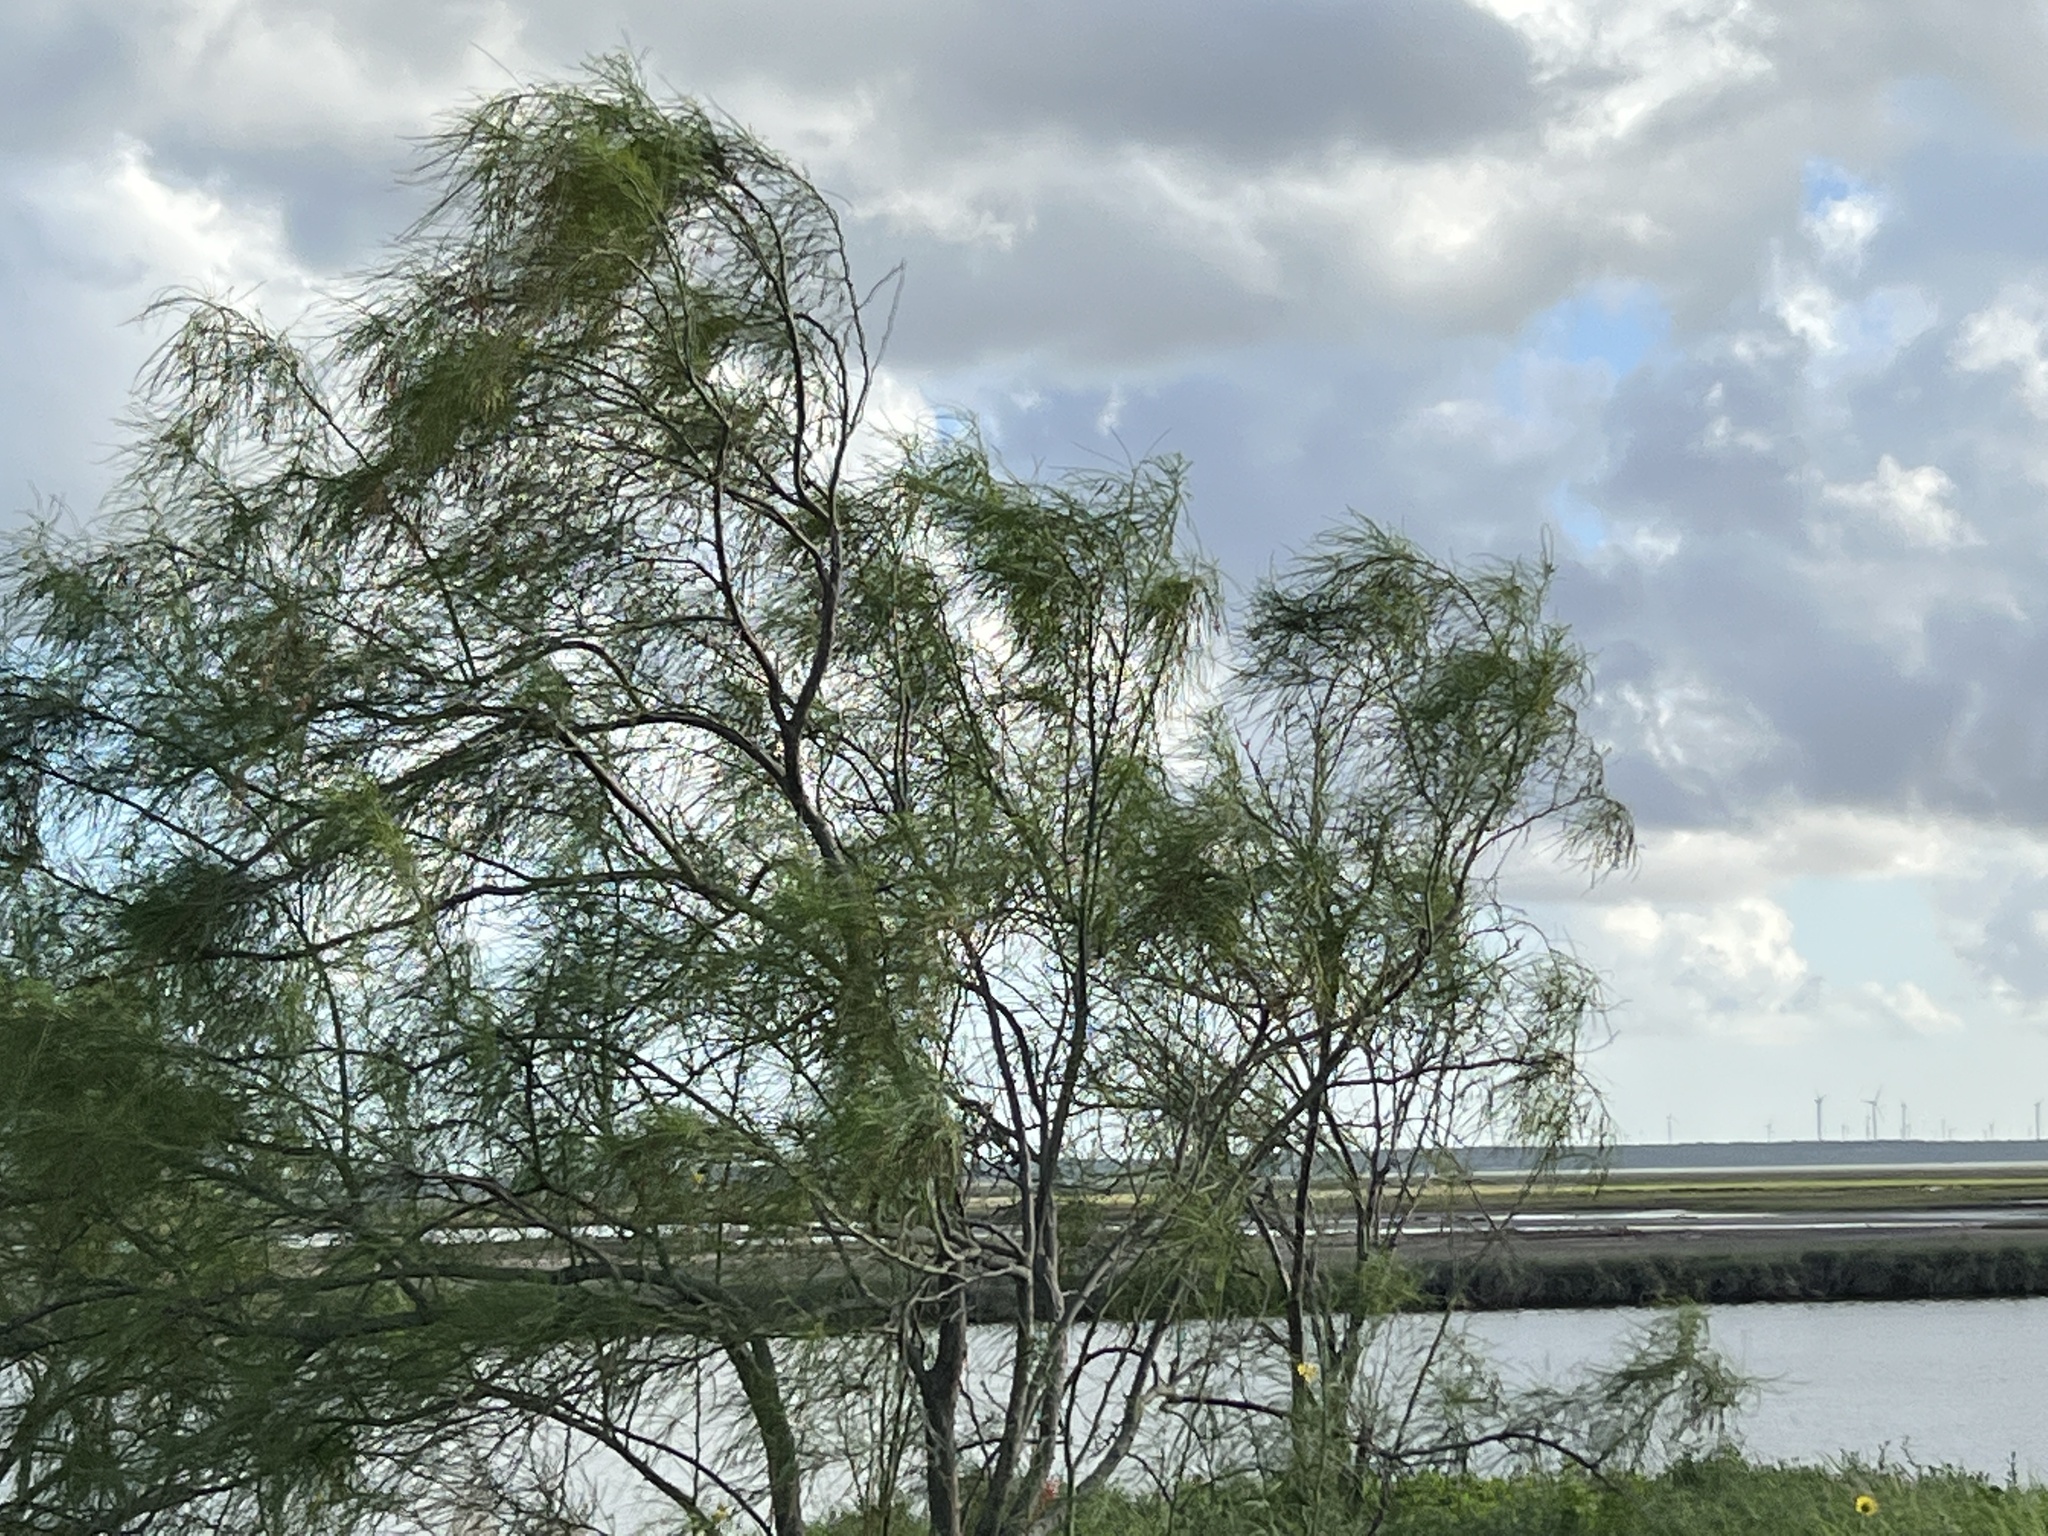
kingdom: Plantae
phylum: Tracheophyta
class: Magnoliopsida
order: Fabales
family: Fabaceae
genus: Parkinsonia
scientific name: Parkinsonia aculeata
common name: Jerusalem thorn
